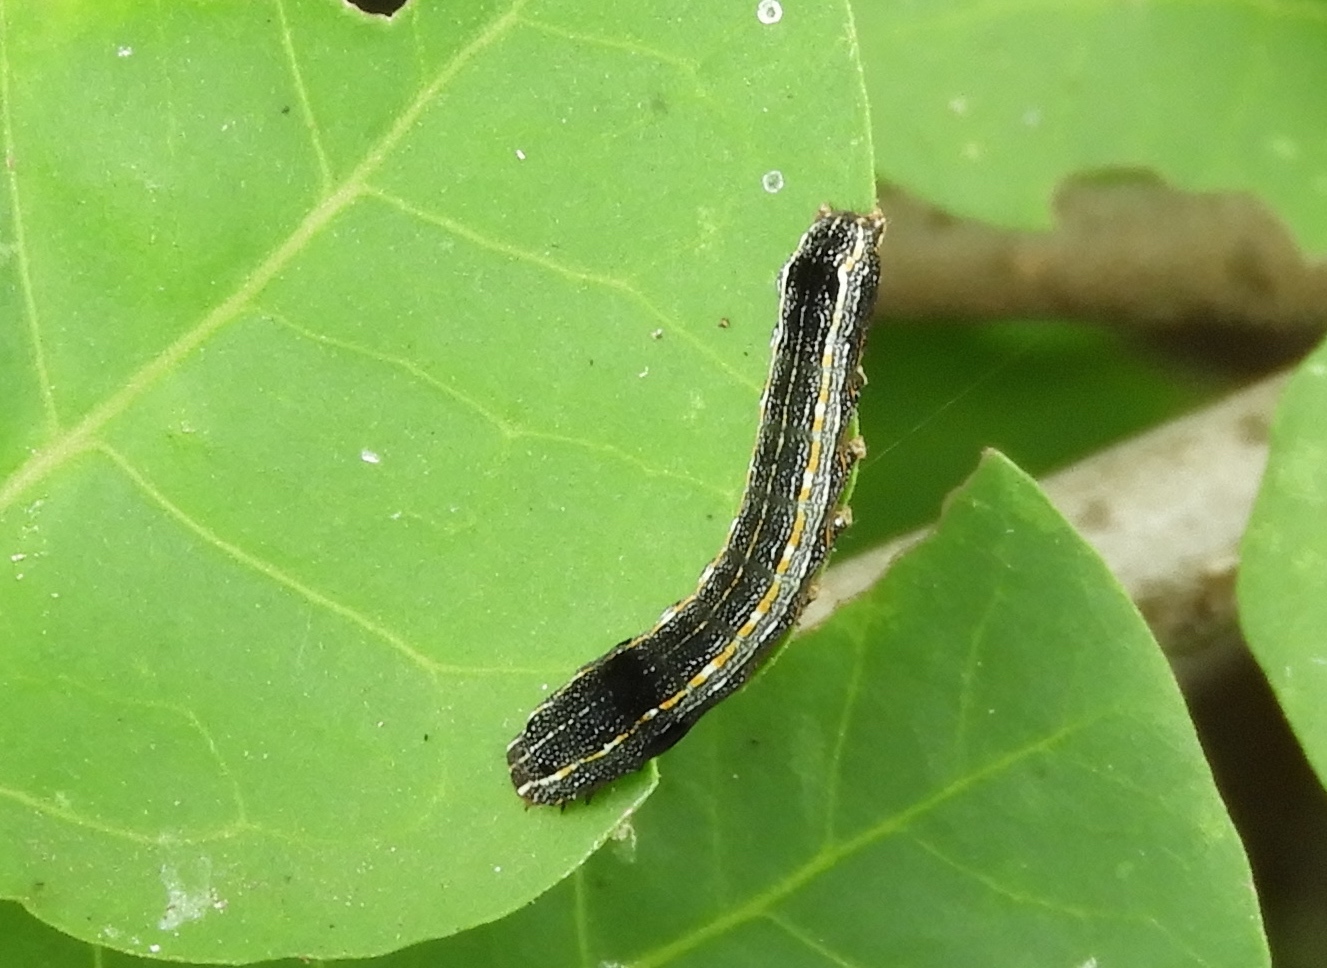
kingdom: Animalia
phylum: Arthropoda
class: Insecta
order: Lepidoptera
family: Noctuidae
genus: Spodoptera
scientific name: Spodoptera ornithogalli
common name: Yellow-striped armyworm
